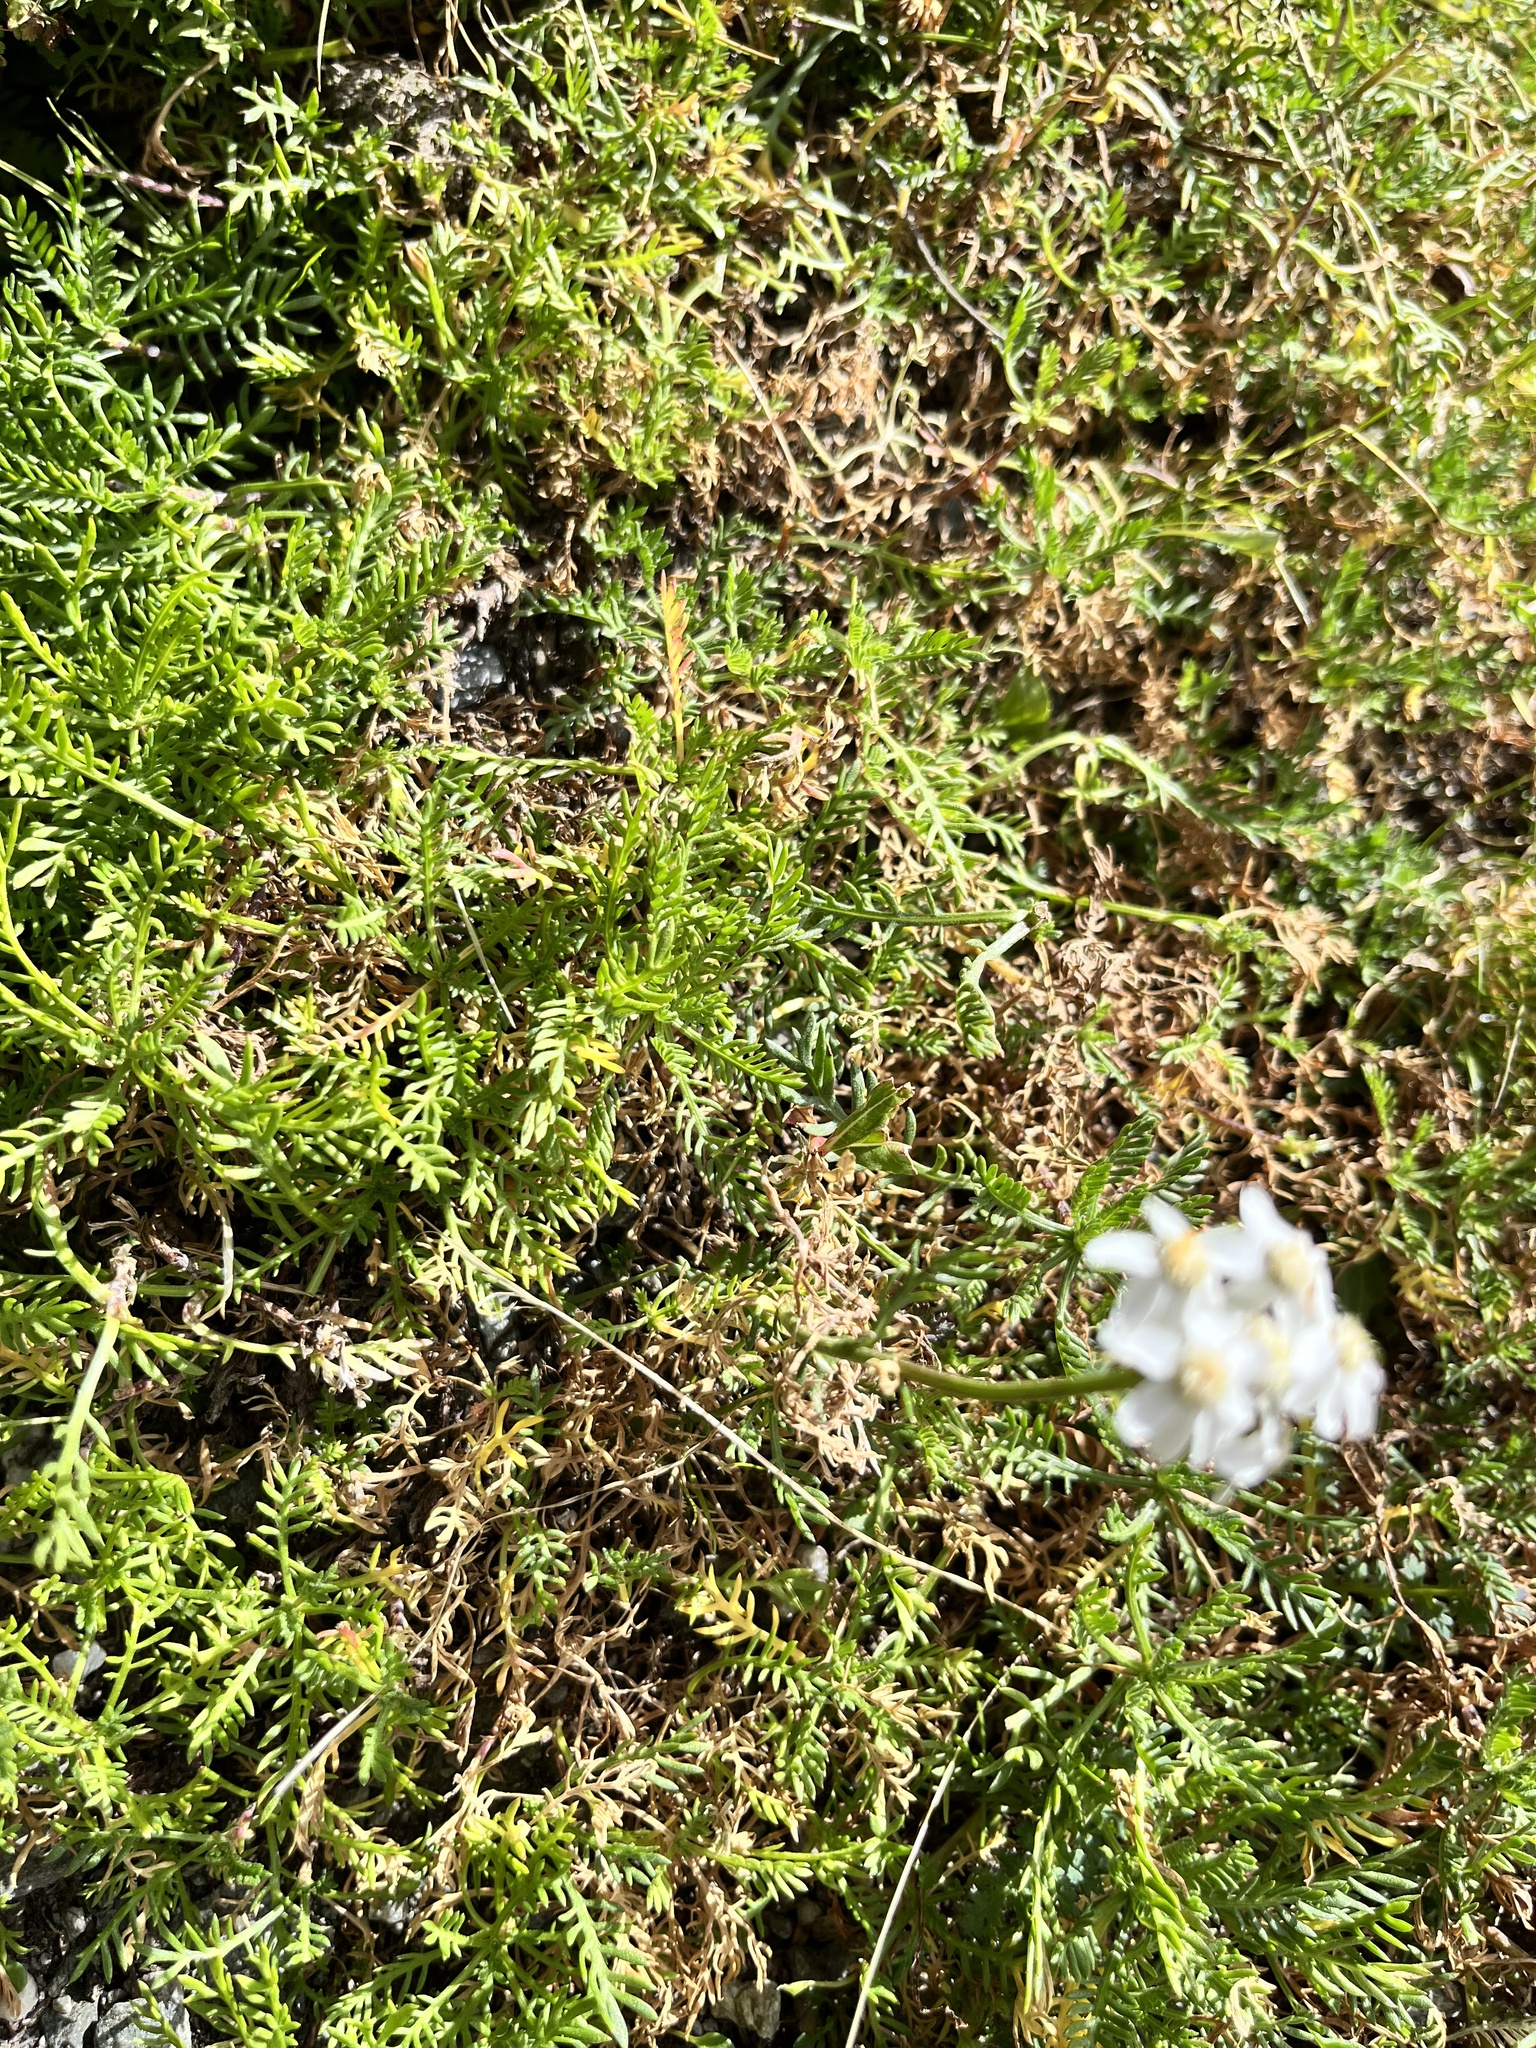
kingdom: Plantae
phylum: Tracheophyta
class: Magnoliopsida
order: Asterales
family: Asteraceae
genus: Achillea
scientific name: Achillea erba-rotta
